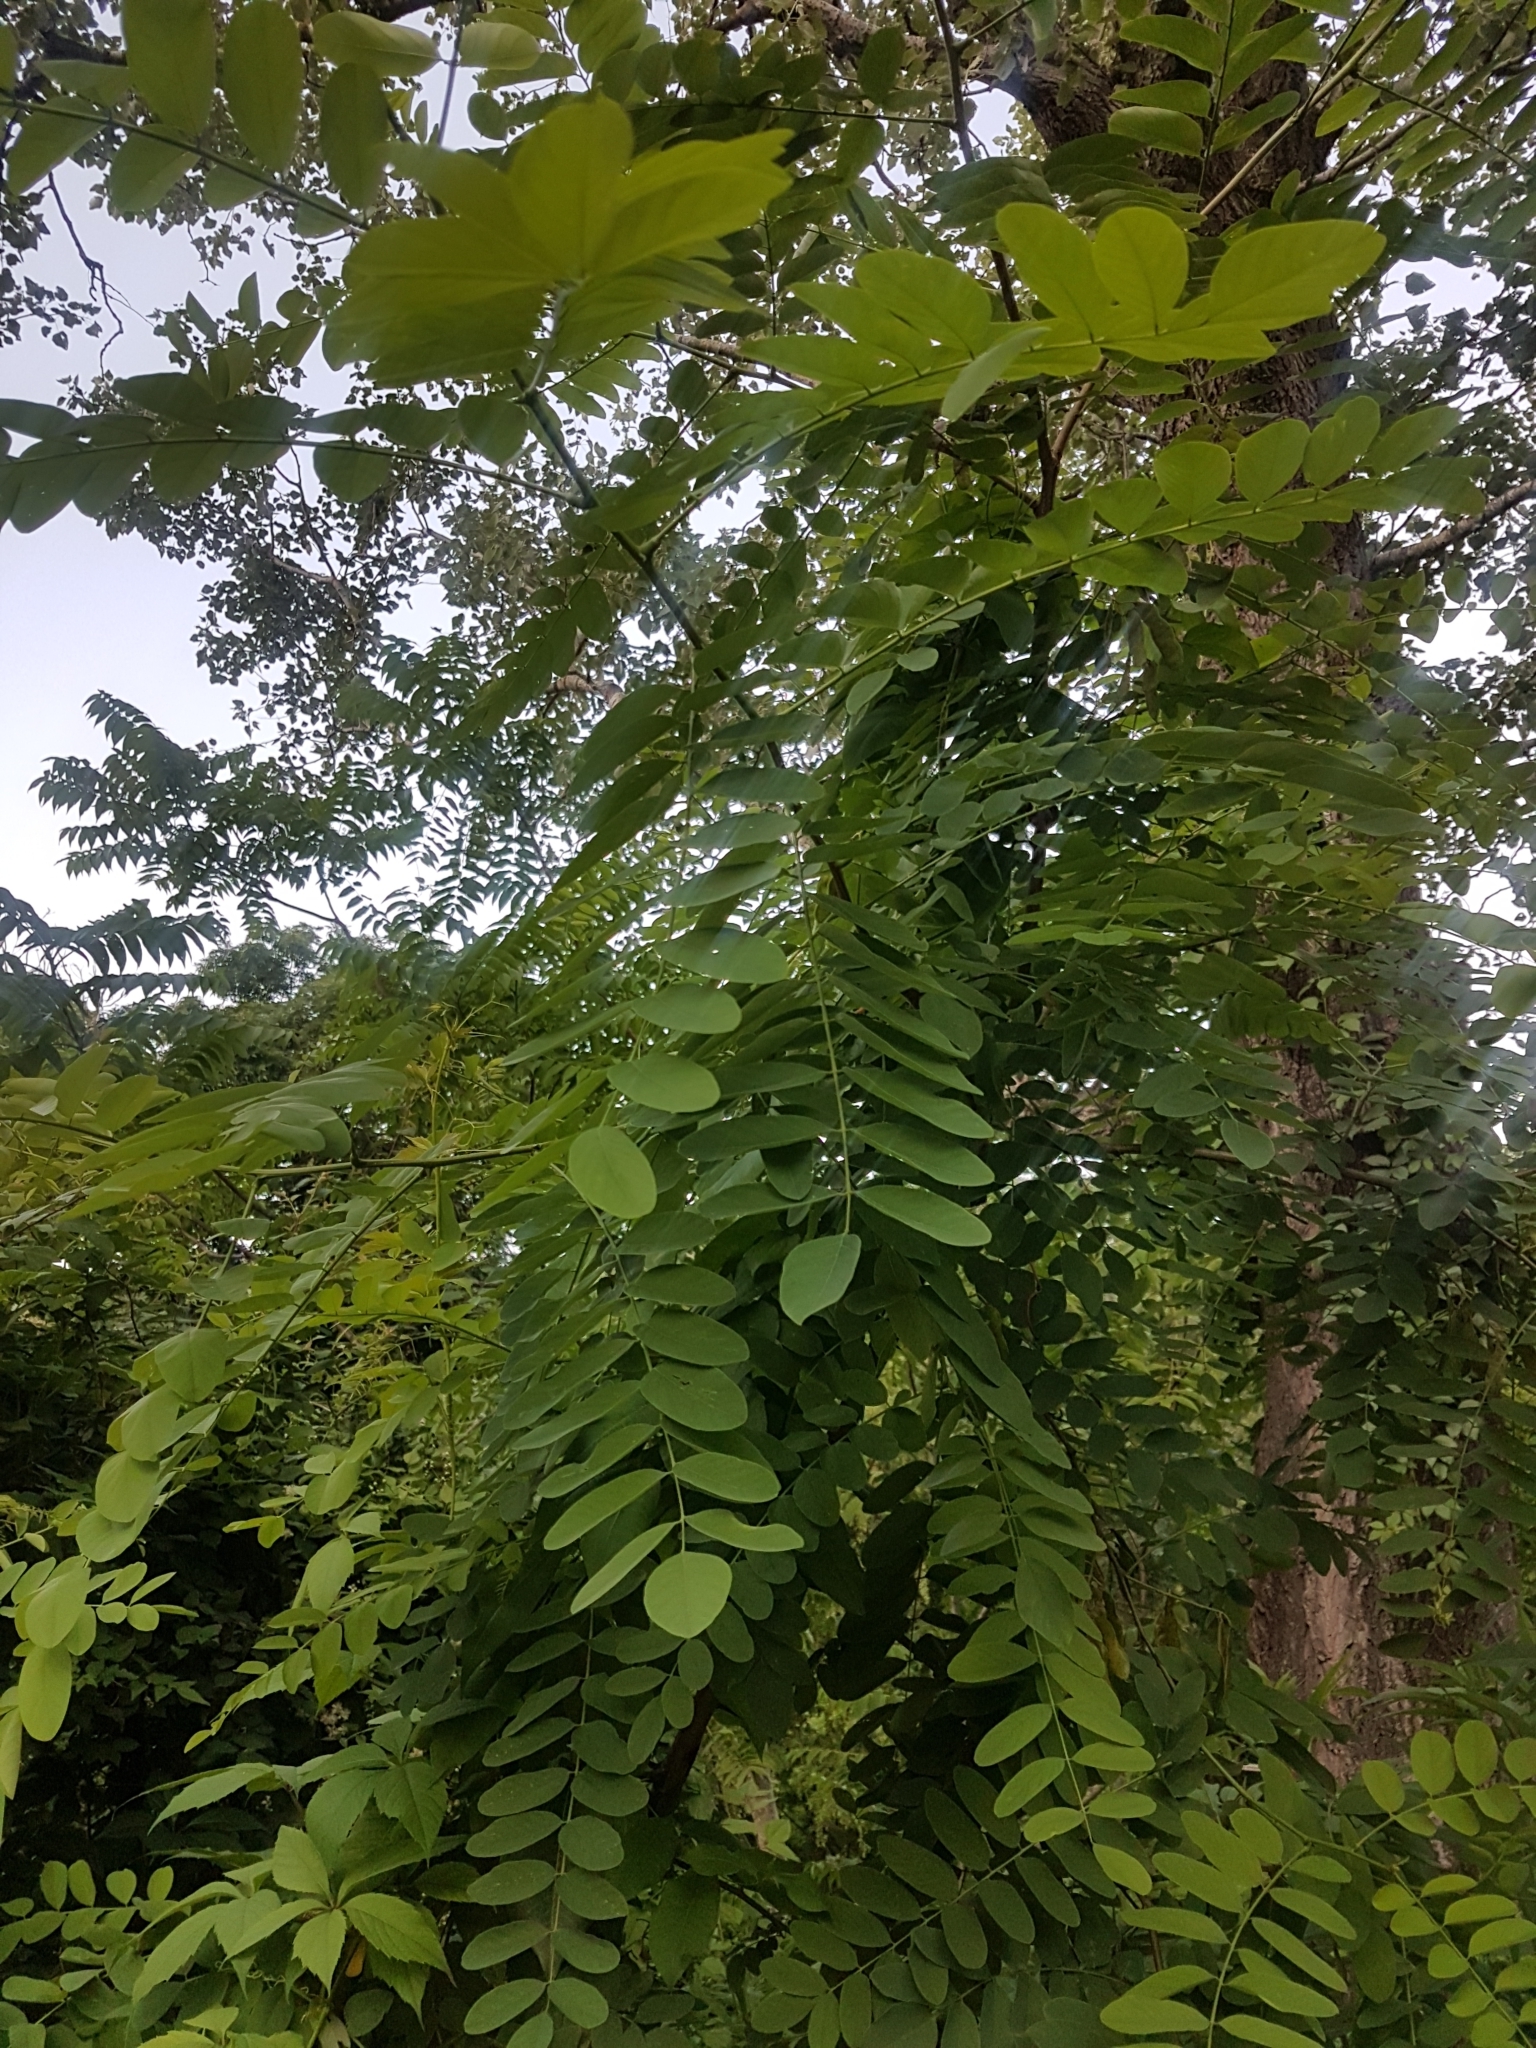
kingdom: Plantae
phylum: Tracheophyta
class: Magnoliopsida
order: Fabales
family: Fabaceae
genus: Robinia
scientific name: Robinia pseudoacacia
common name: Black locust
